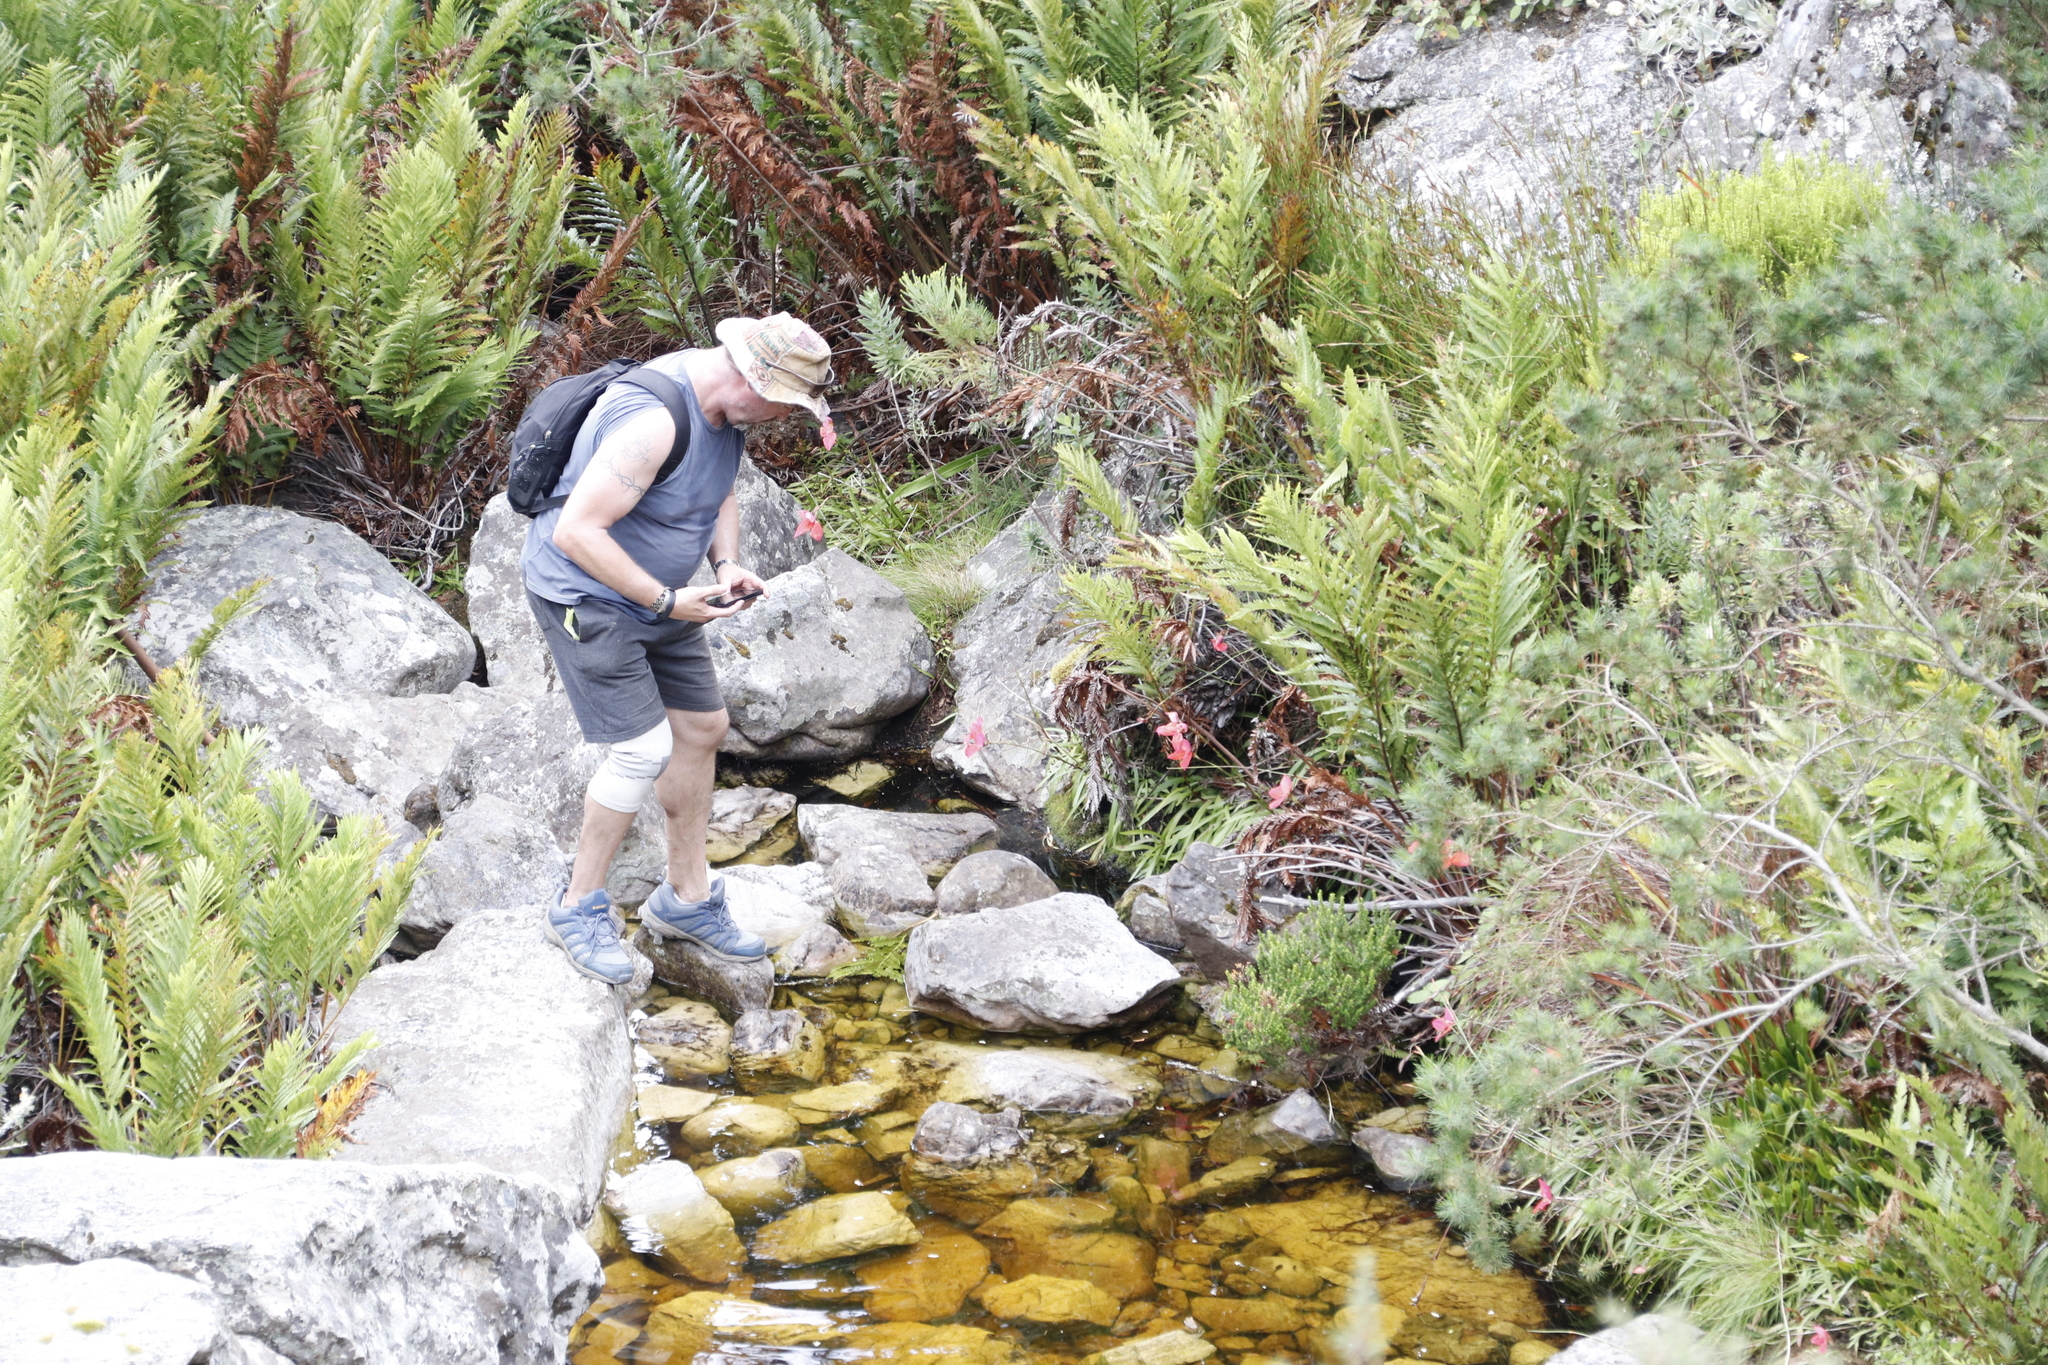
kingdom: Plantae
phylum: Tracheophyta
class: Liliopsida
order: Asparagales
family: Orchidaceae
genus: Disa
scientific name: Disa uniflora
